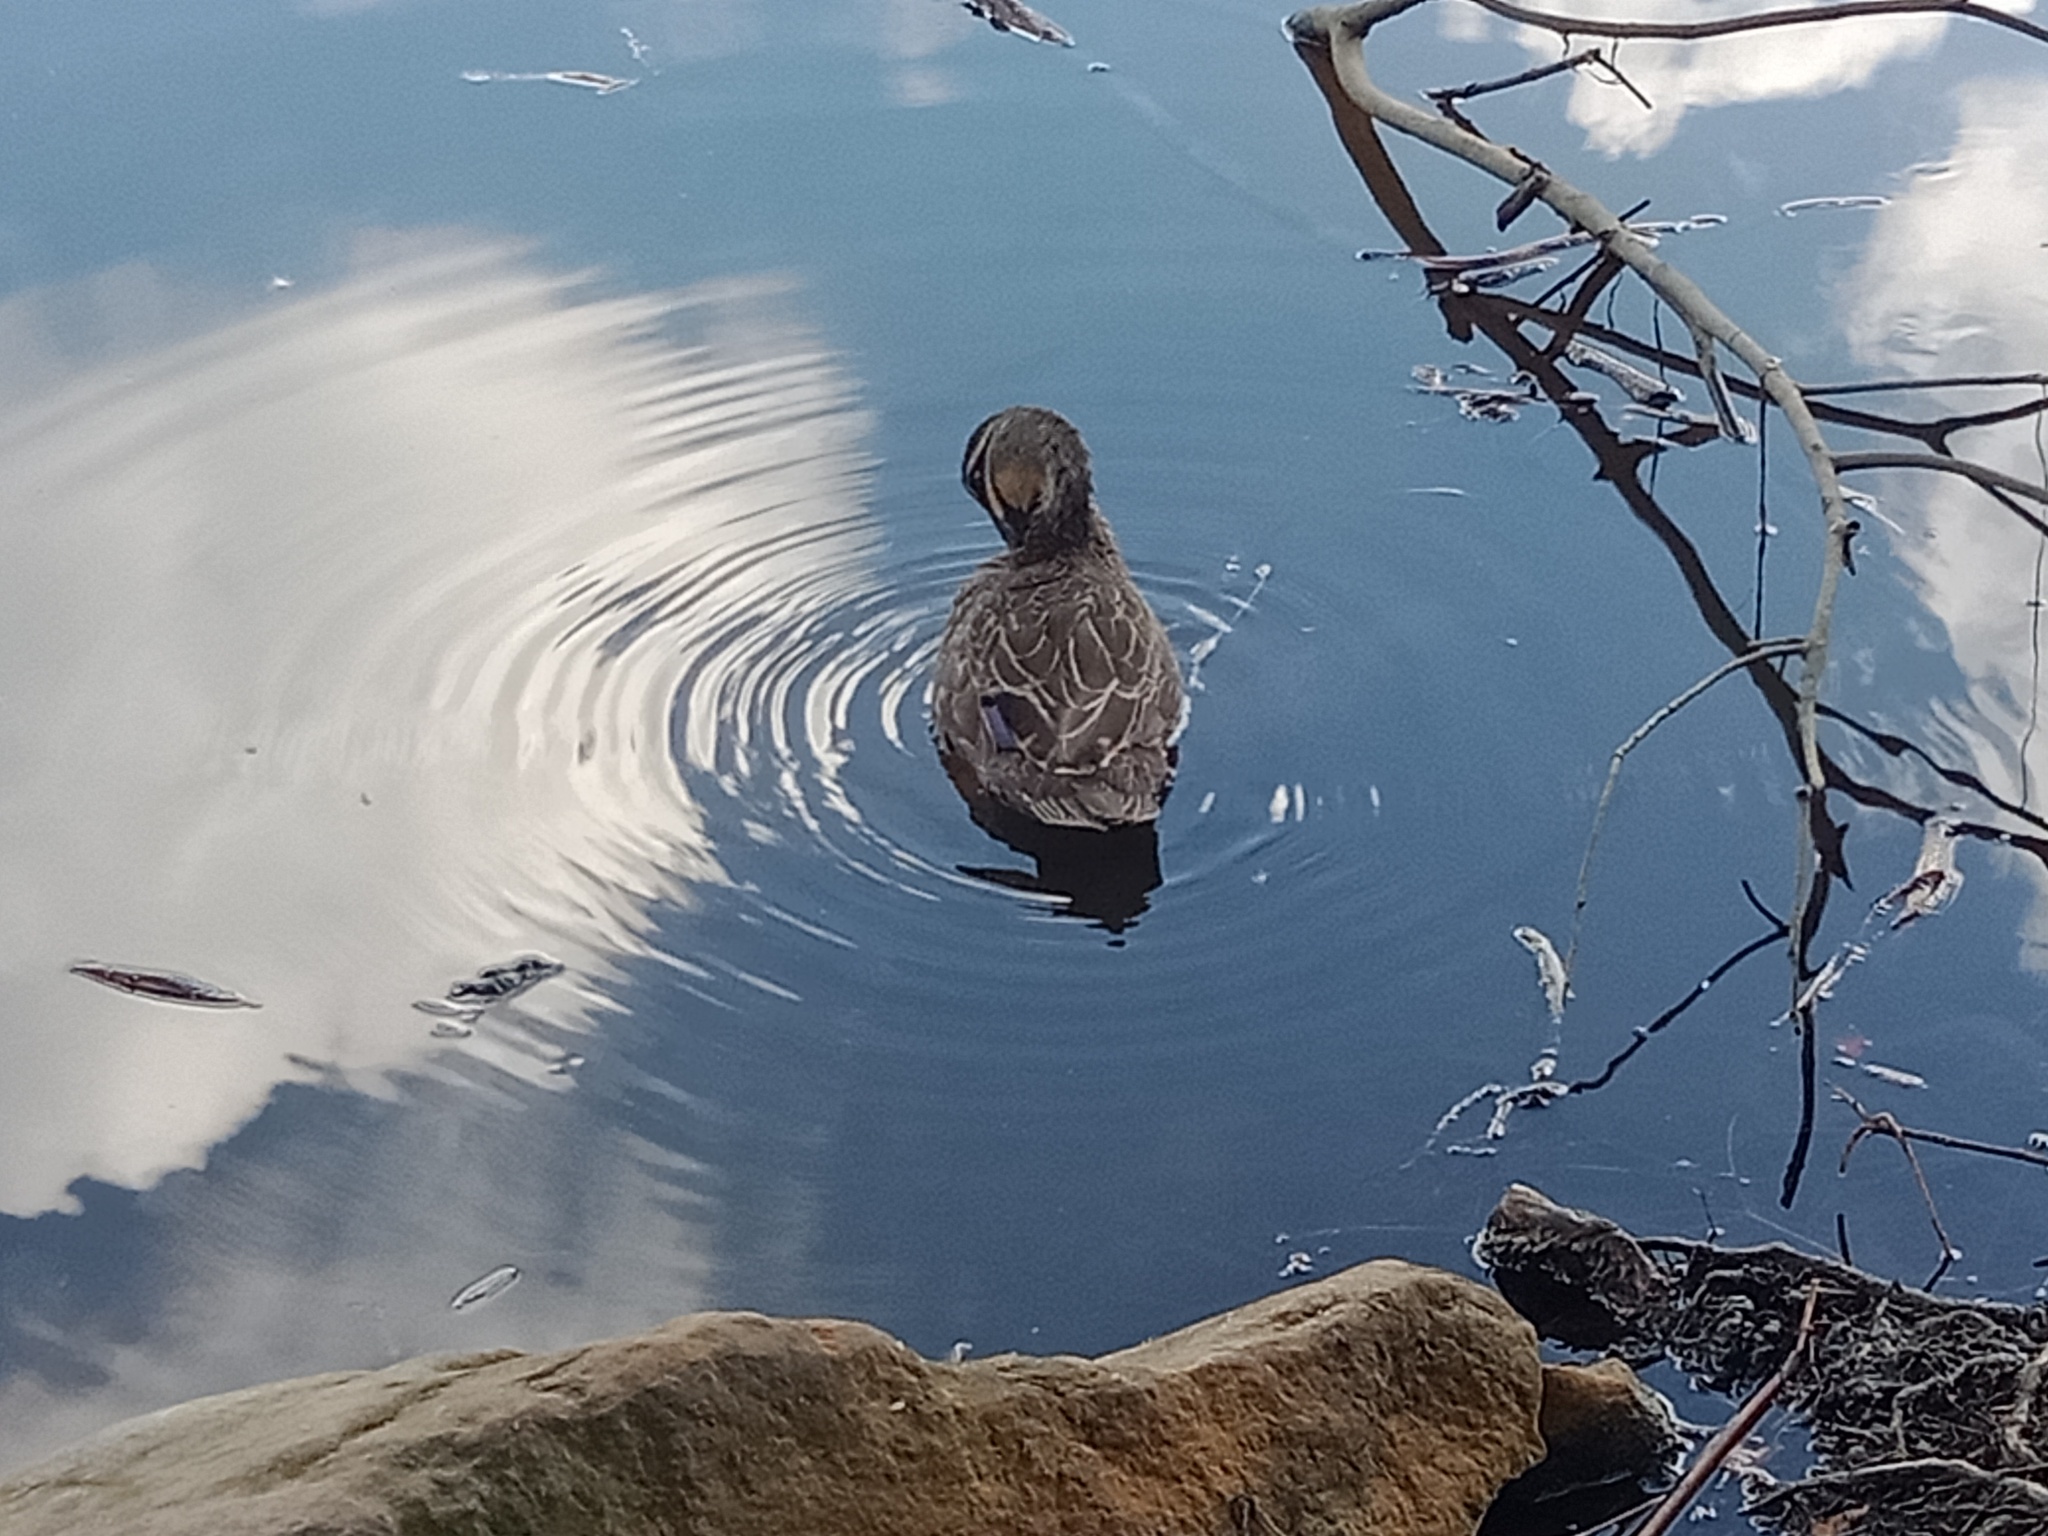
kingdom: Animalia
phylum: Chordata
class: Aves
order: Anseriformes
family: Anatidae
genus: Anas
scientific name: Anas superciliosa
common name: Pacific black duck
